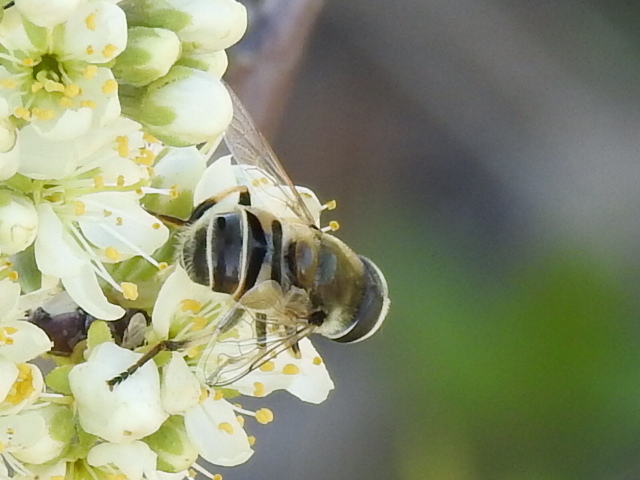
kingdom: Animalia
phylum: Arthropoda
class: Insecta
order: Diptera
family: Syrphidae
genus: Eristalis
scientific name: Eristalis stipator
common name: Yellow-shouldered drone fly
